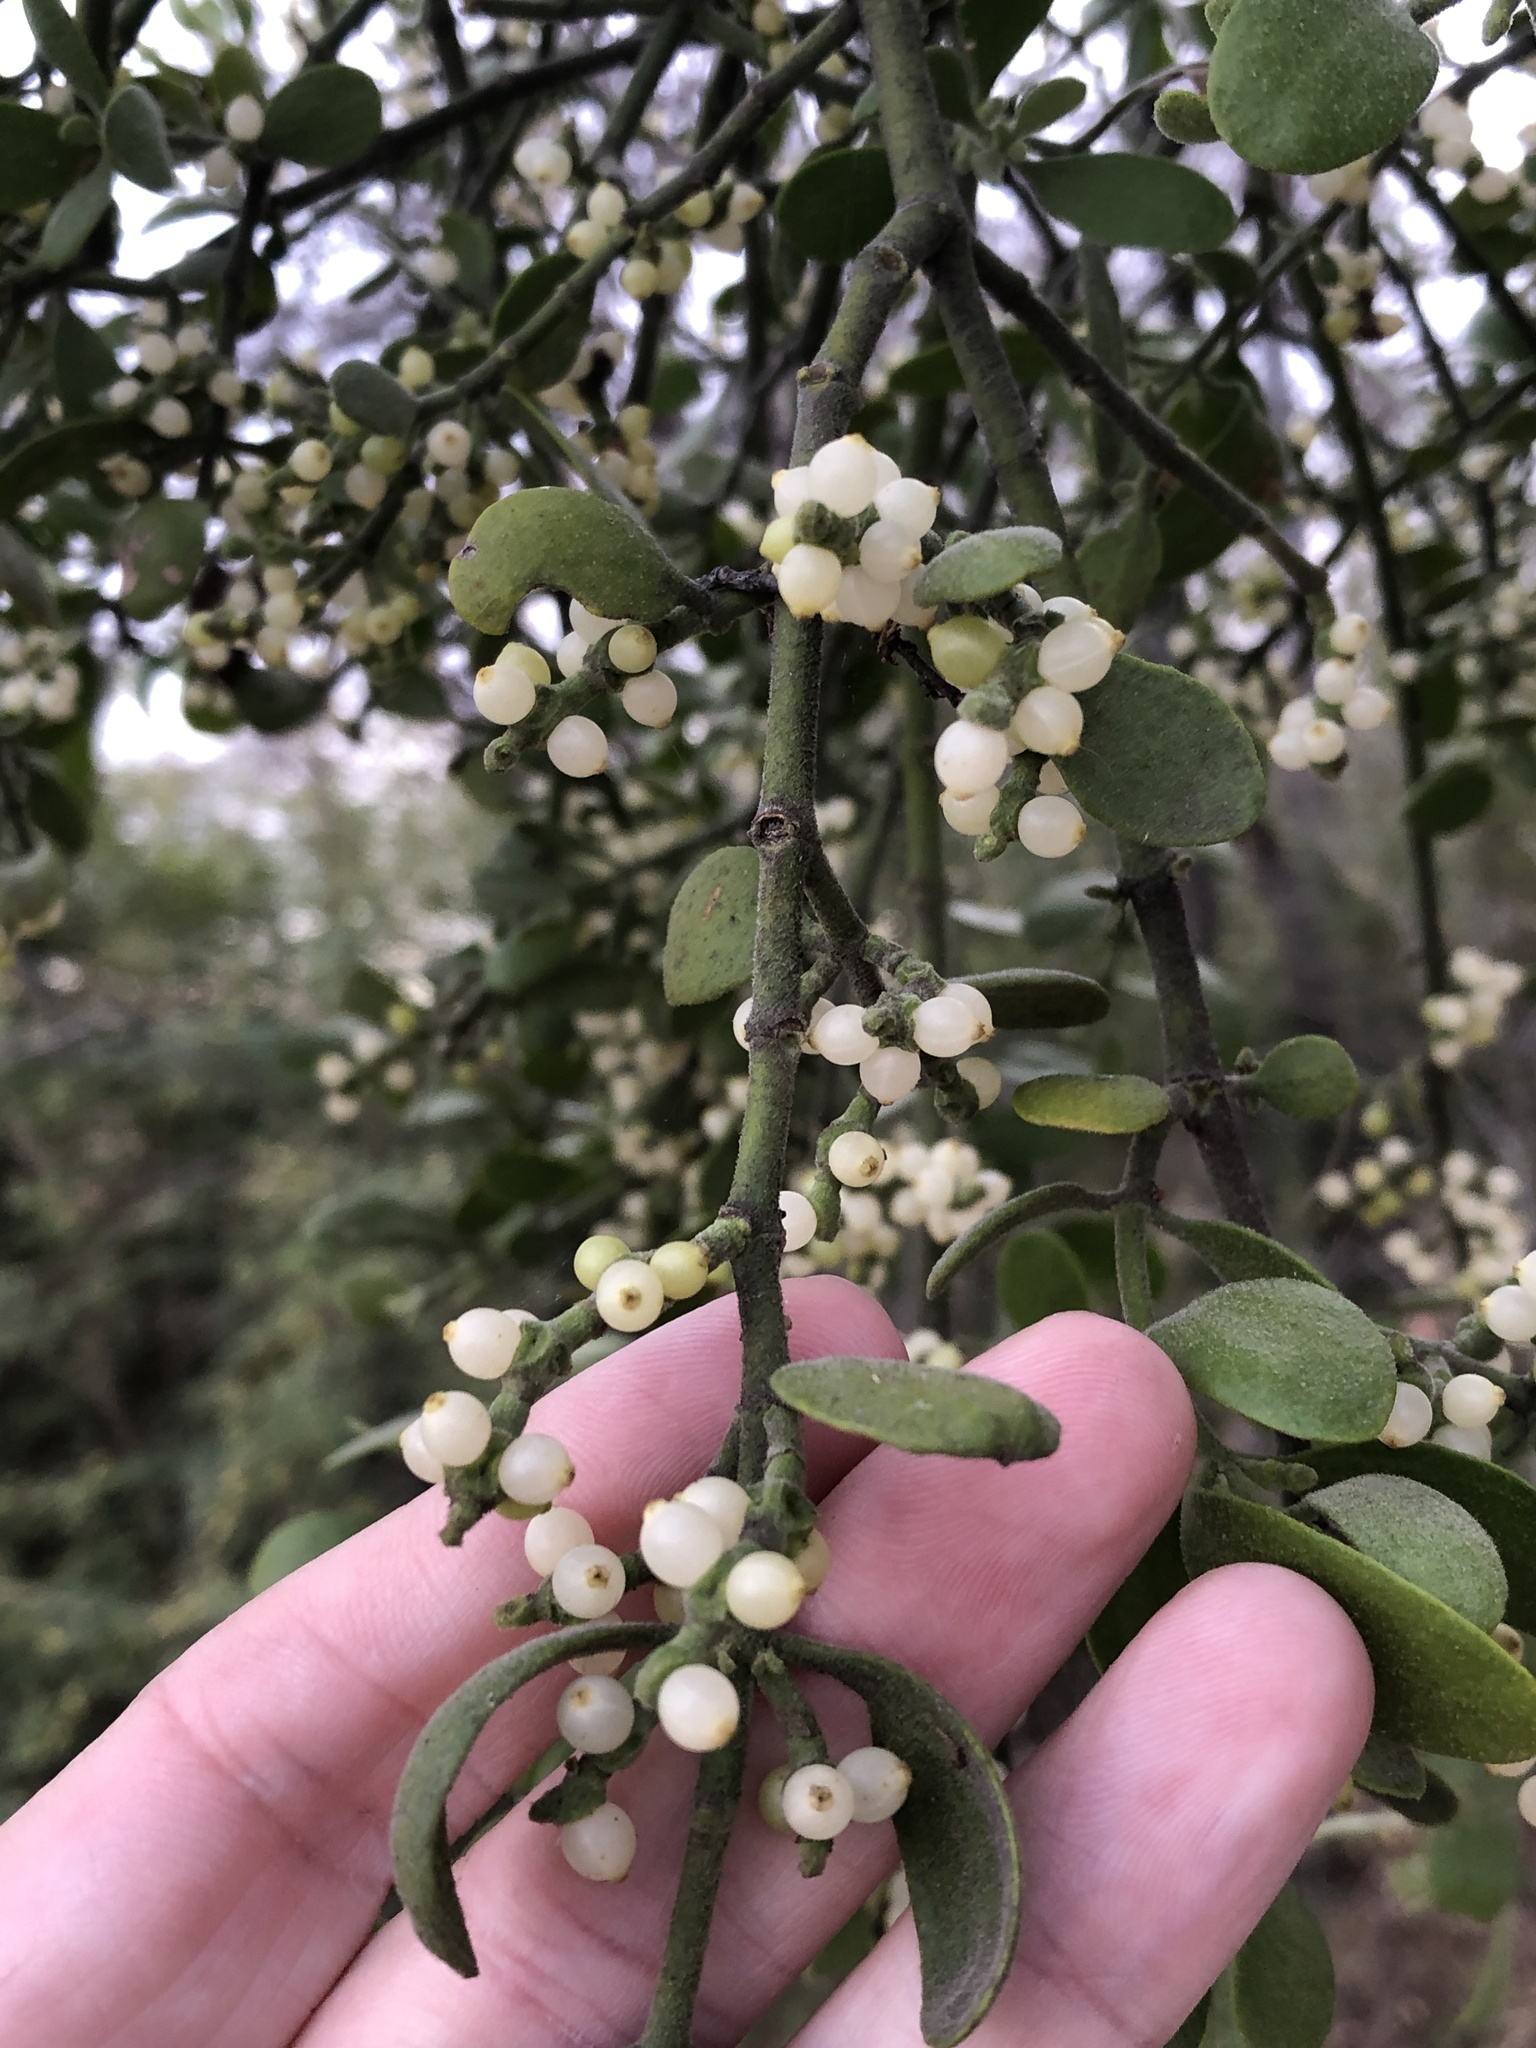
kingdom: Plantae
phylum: Tracheophyta
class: Magnoliopsida
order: Santalales
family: Viscaceae
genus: Phoradendron
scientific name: Phoradendron leucarpum
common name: Pacific mistletoe
